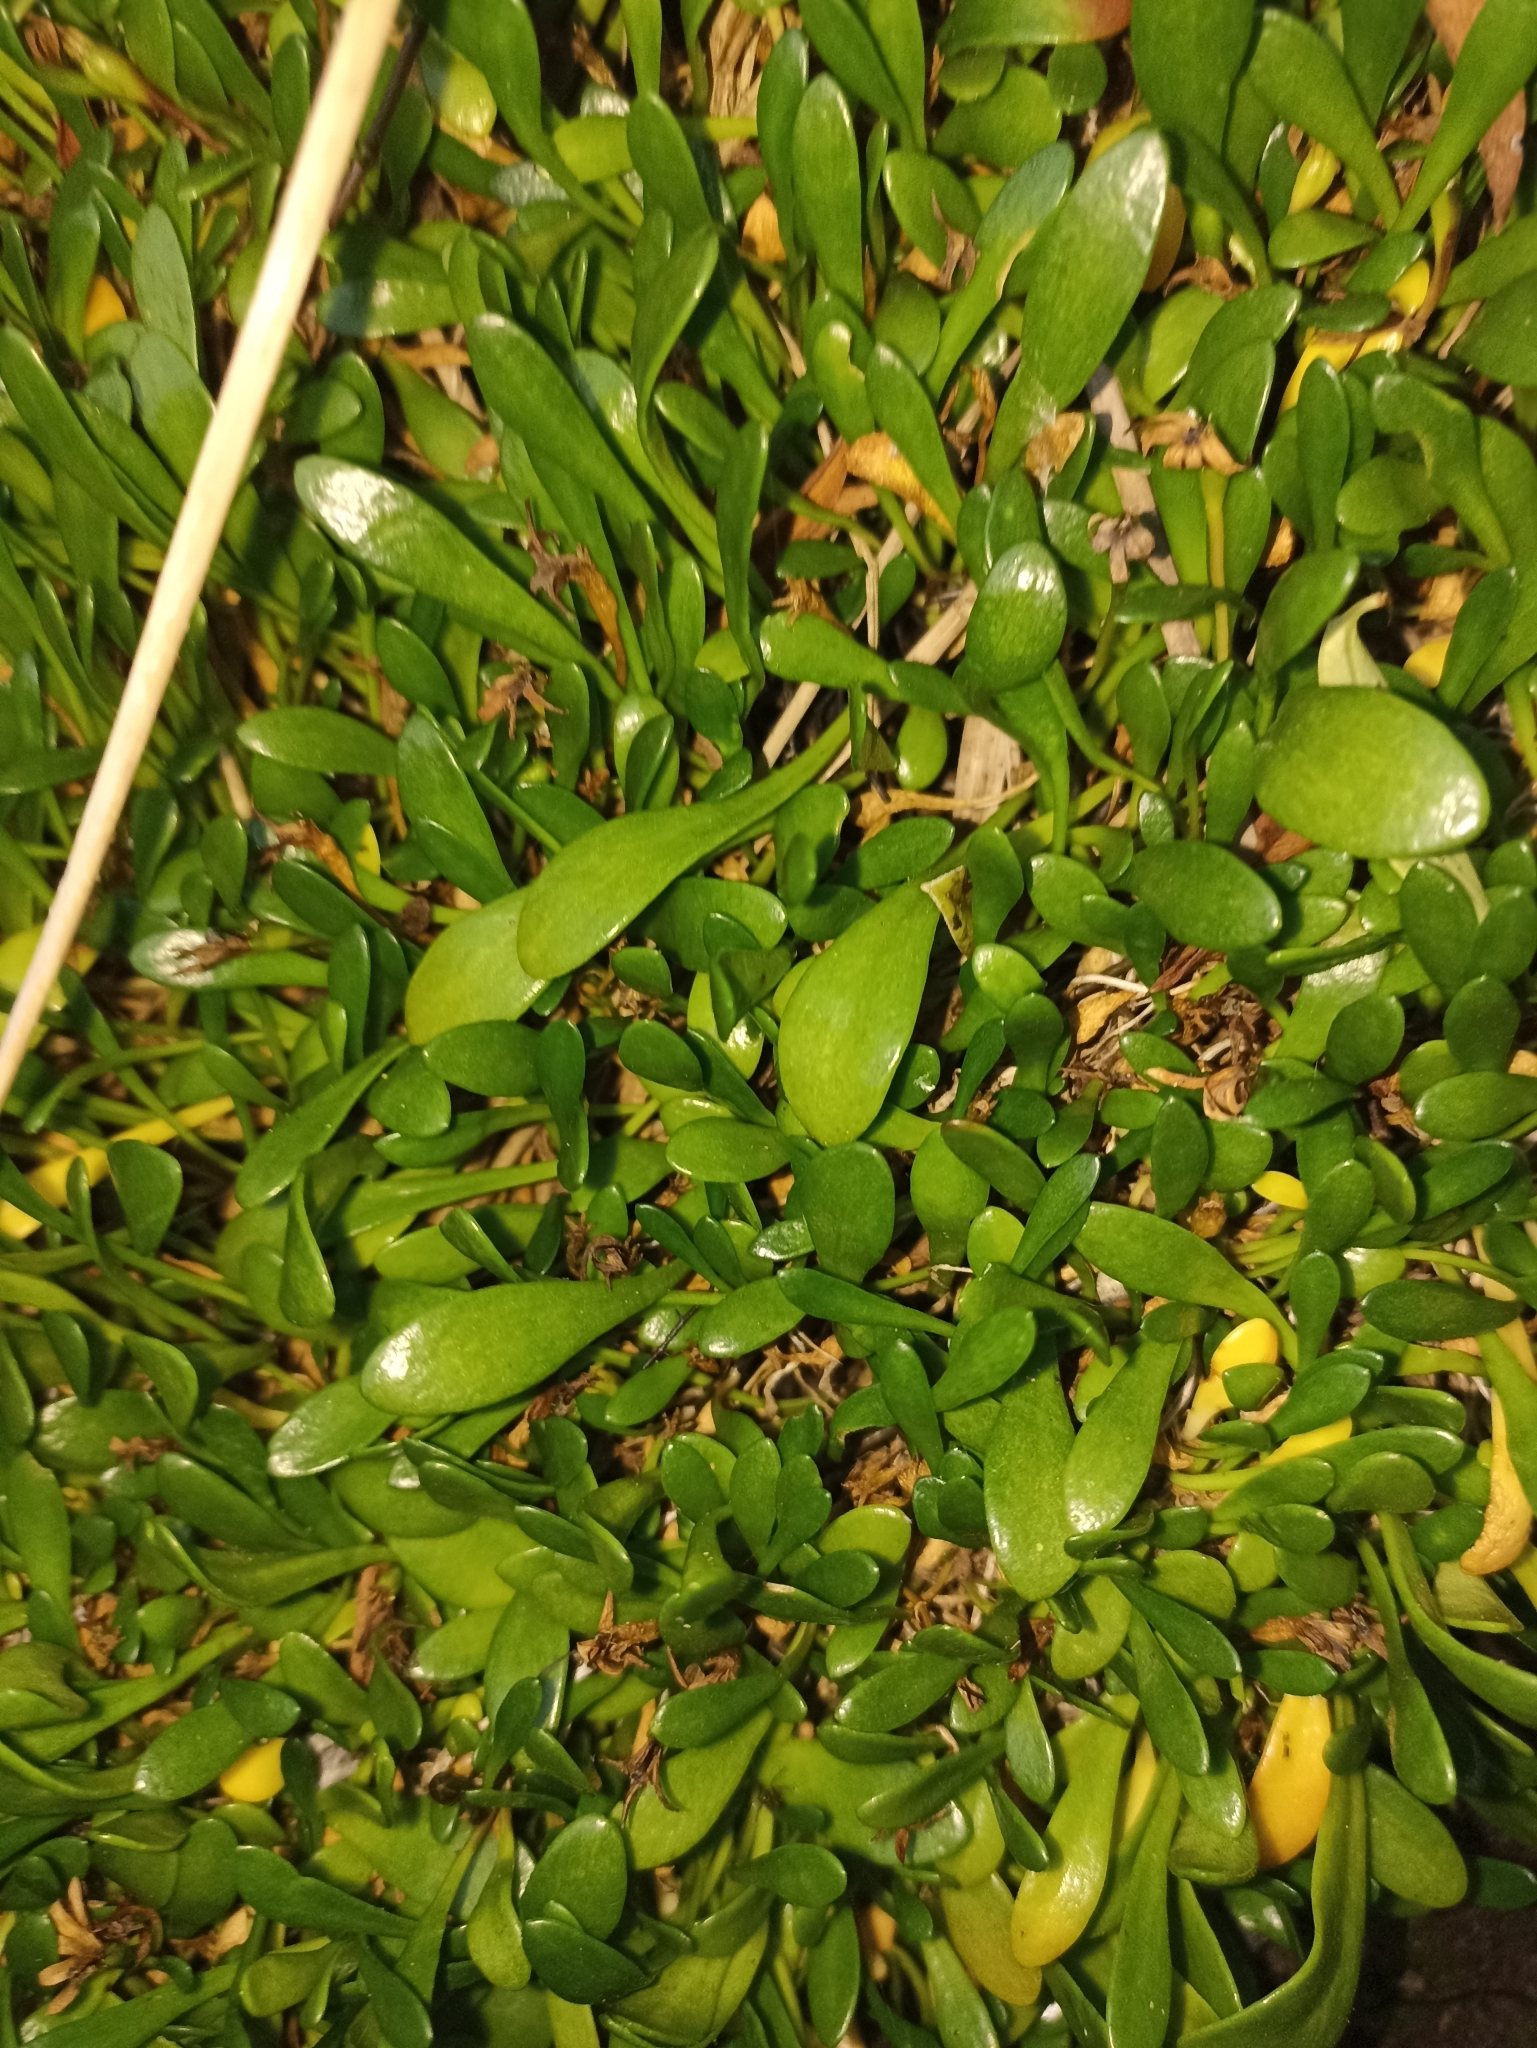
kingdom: Plantae
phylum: Tracheophyta
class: Magnoliopsida
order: Asterales
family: Goodeniaceae
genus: Goodenia
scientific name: Goodenia radicans
